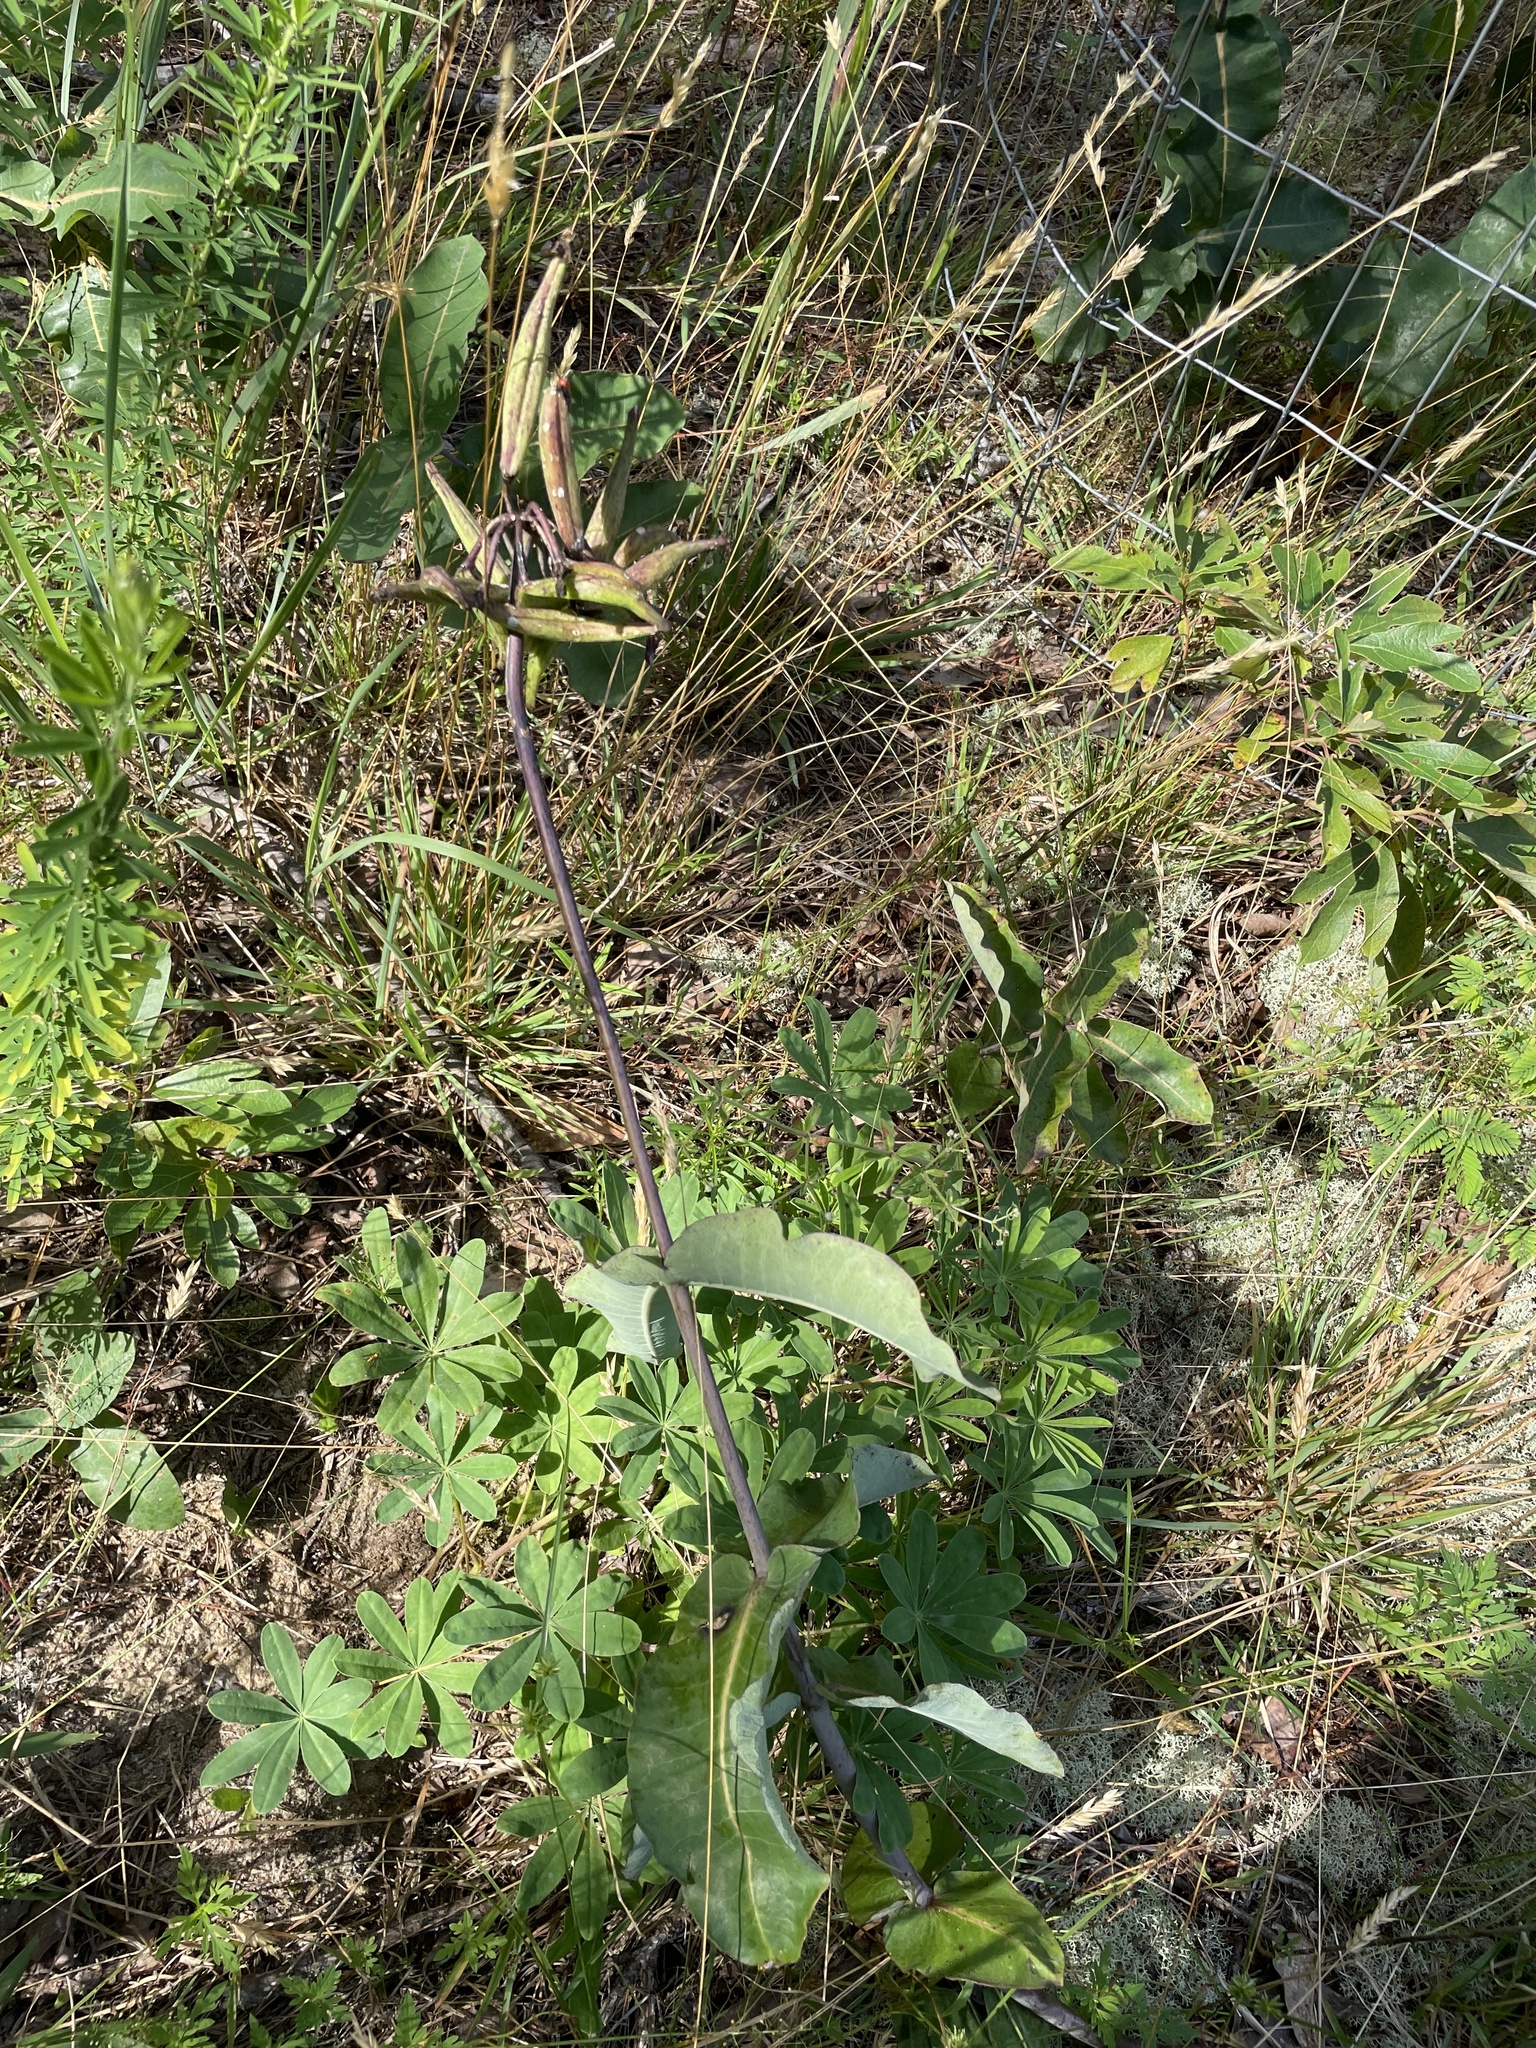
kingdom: Plantae
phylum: Tracheophyta
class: Magnoliopsida
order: Gentianales
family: Apocynaceae
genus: Asclepias
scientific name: Asclepias amplexicaulis
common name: Blunt-leaf milkweed
